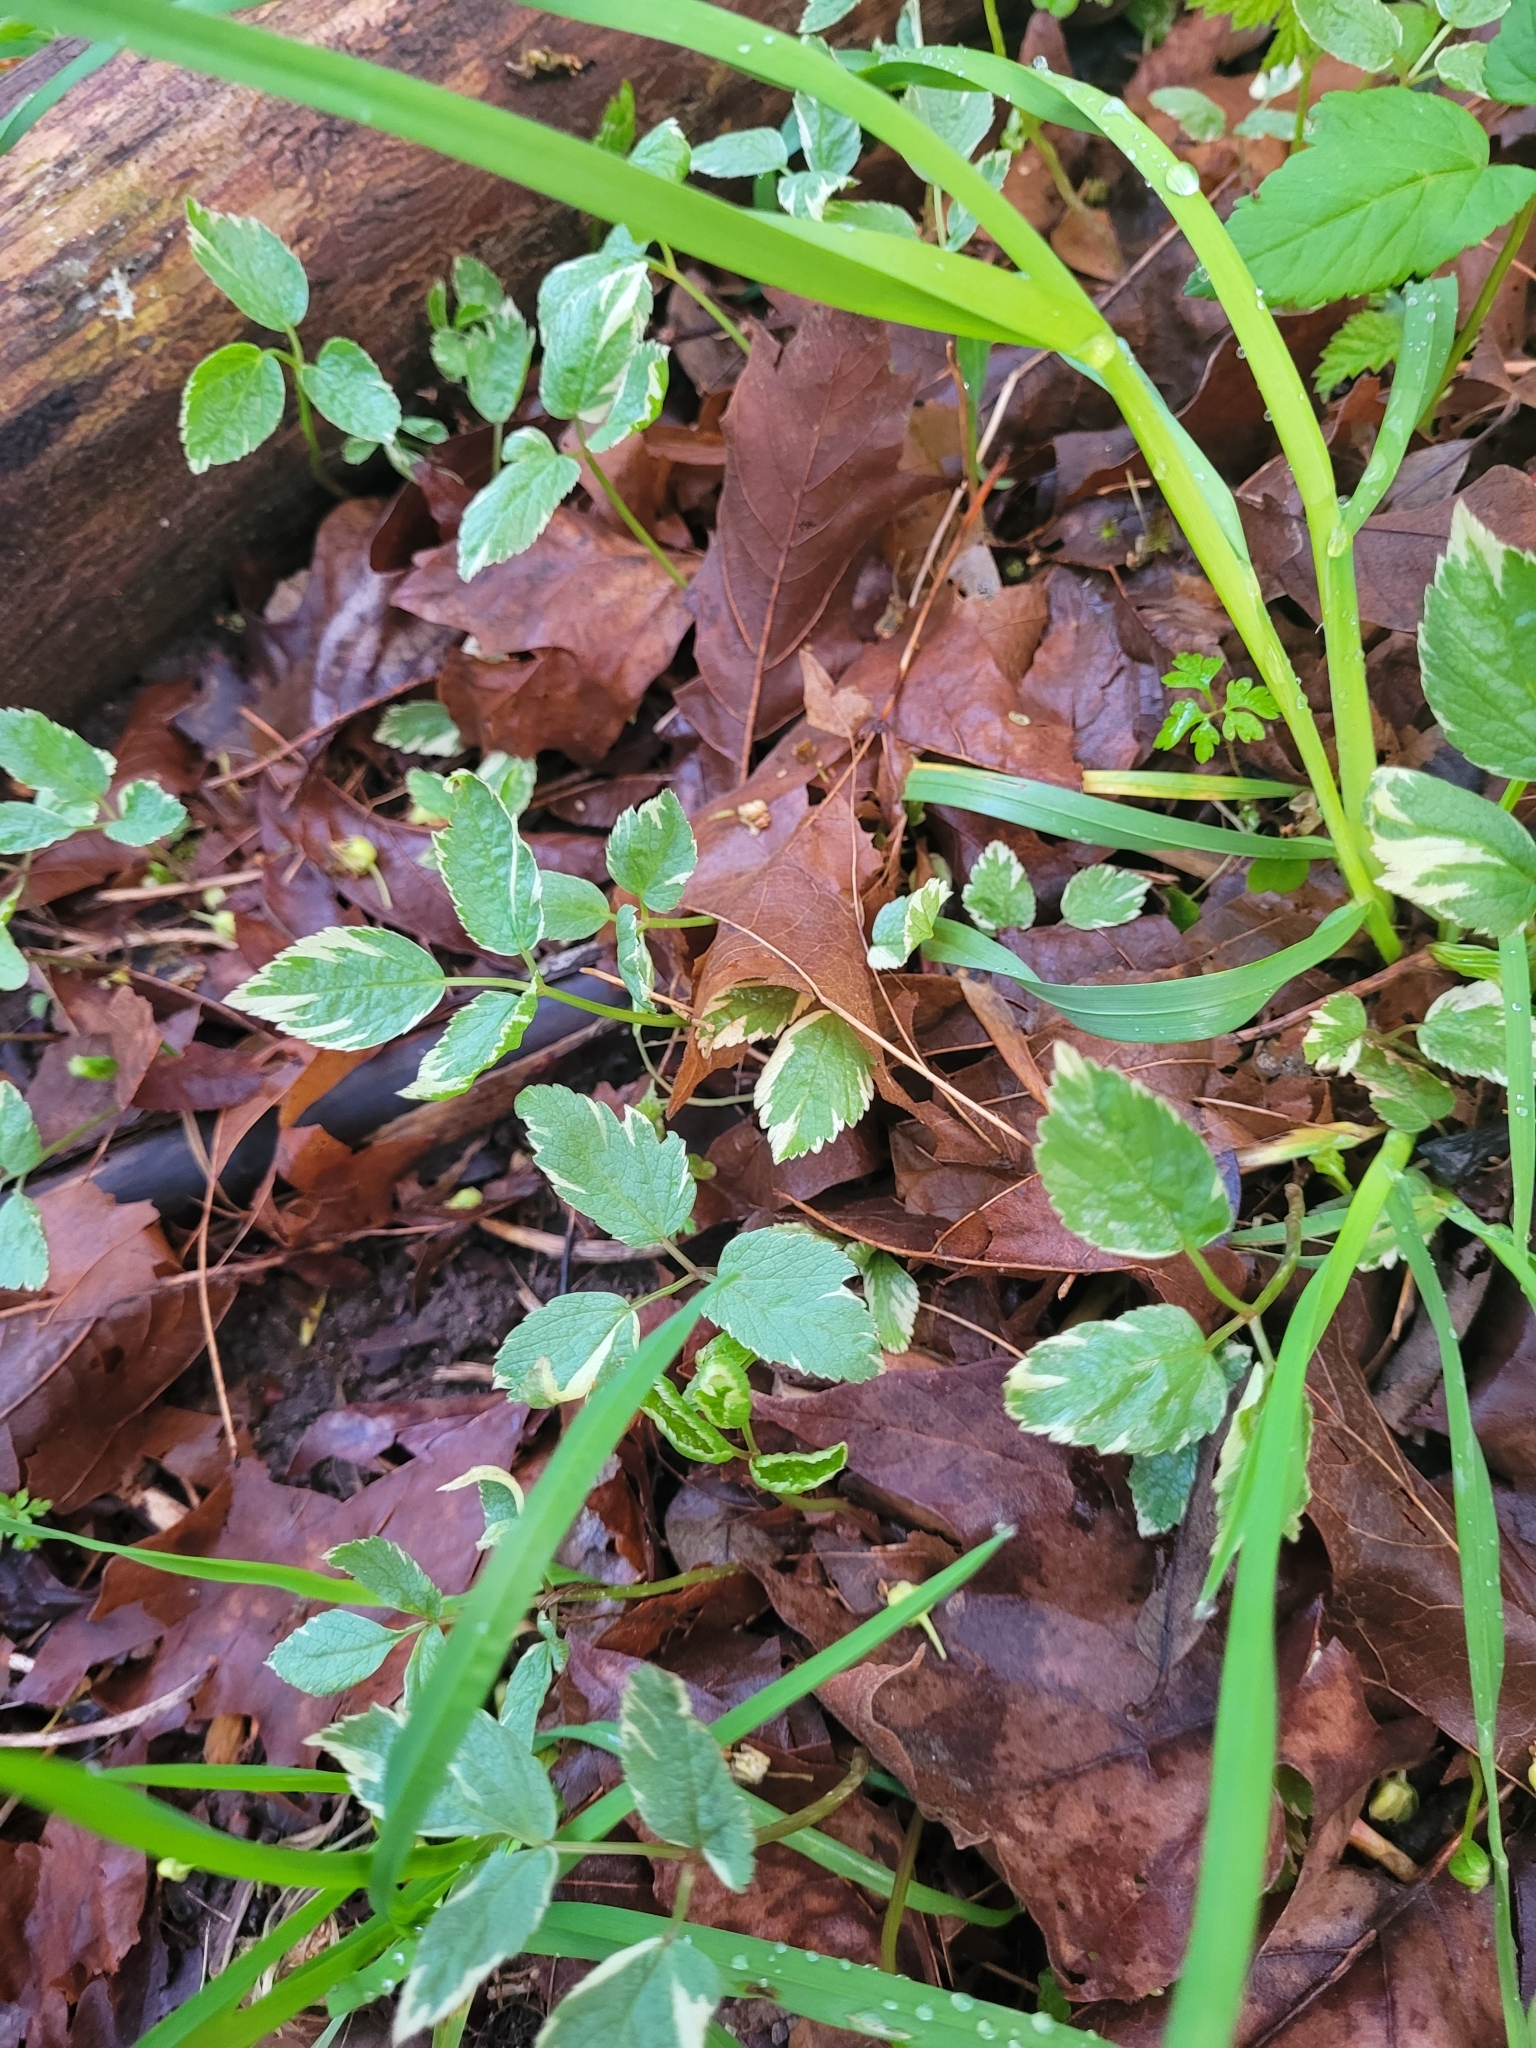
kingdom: Plantae
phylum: Tracheophyta
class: Magnoliopsida
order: Apiales
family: Apiaceae
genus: Aegopodium
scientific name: Aegopodium podagraria
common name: Ground-elder
